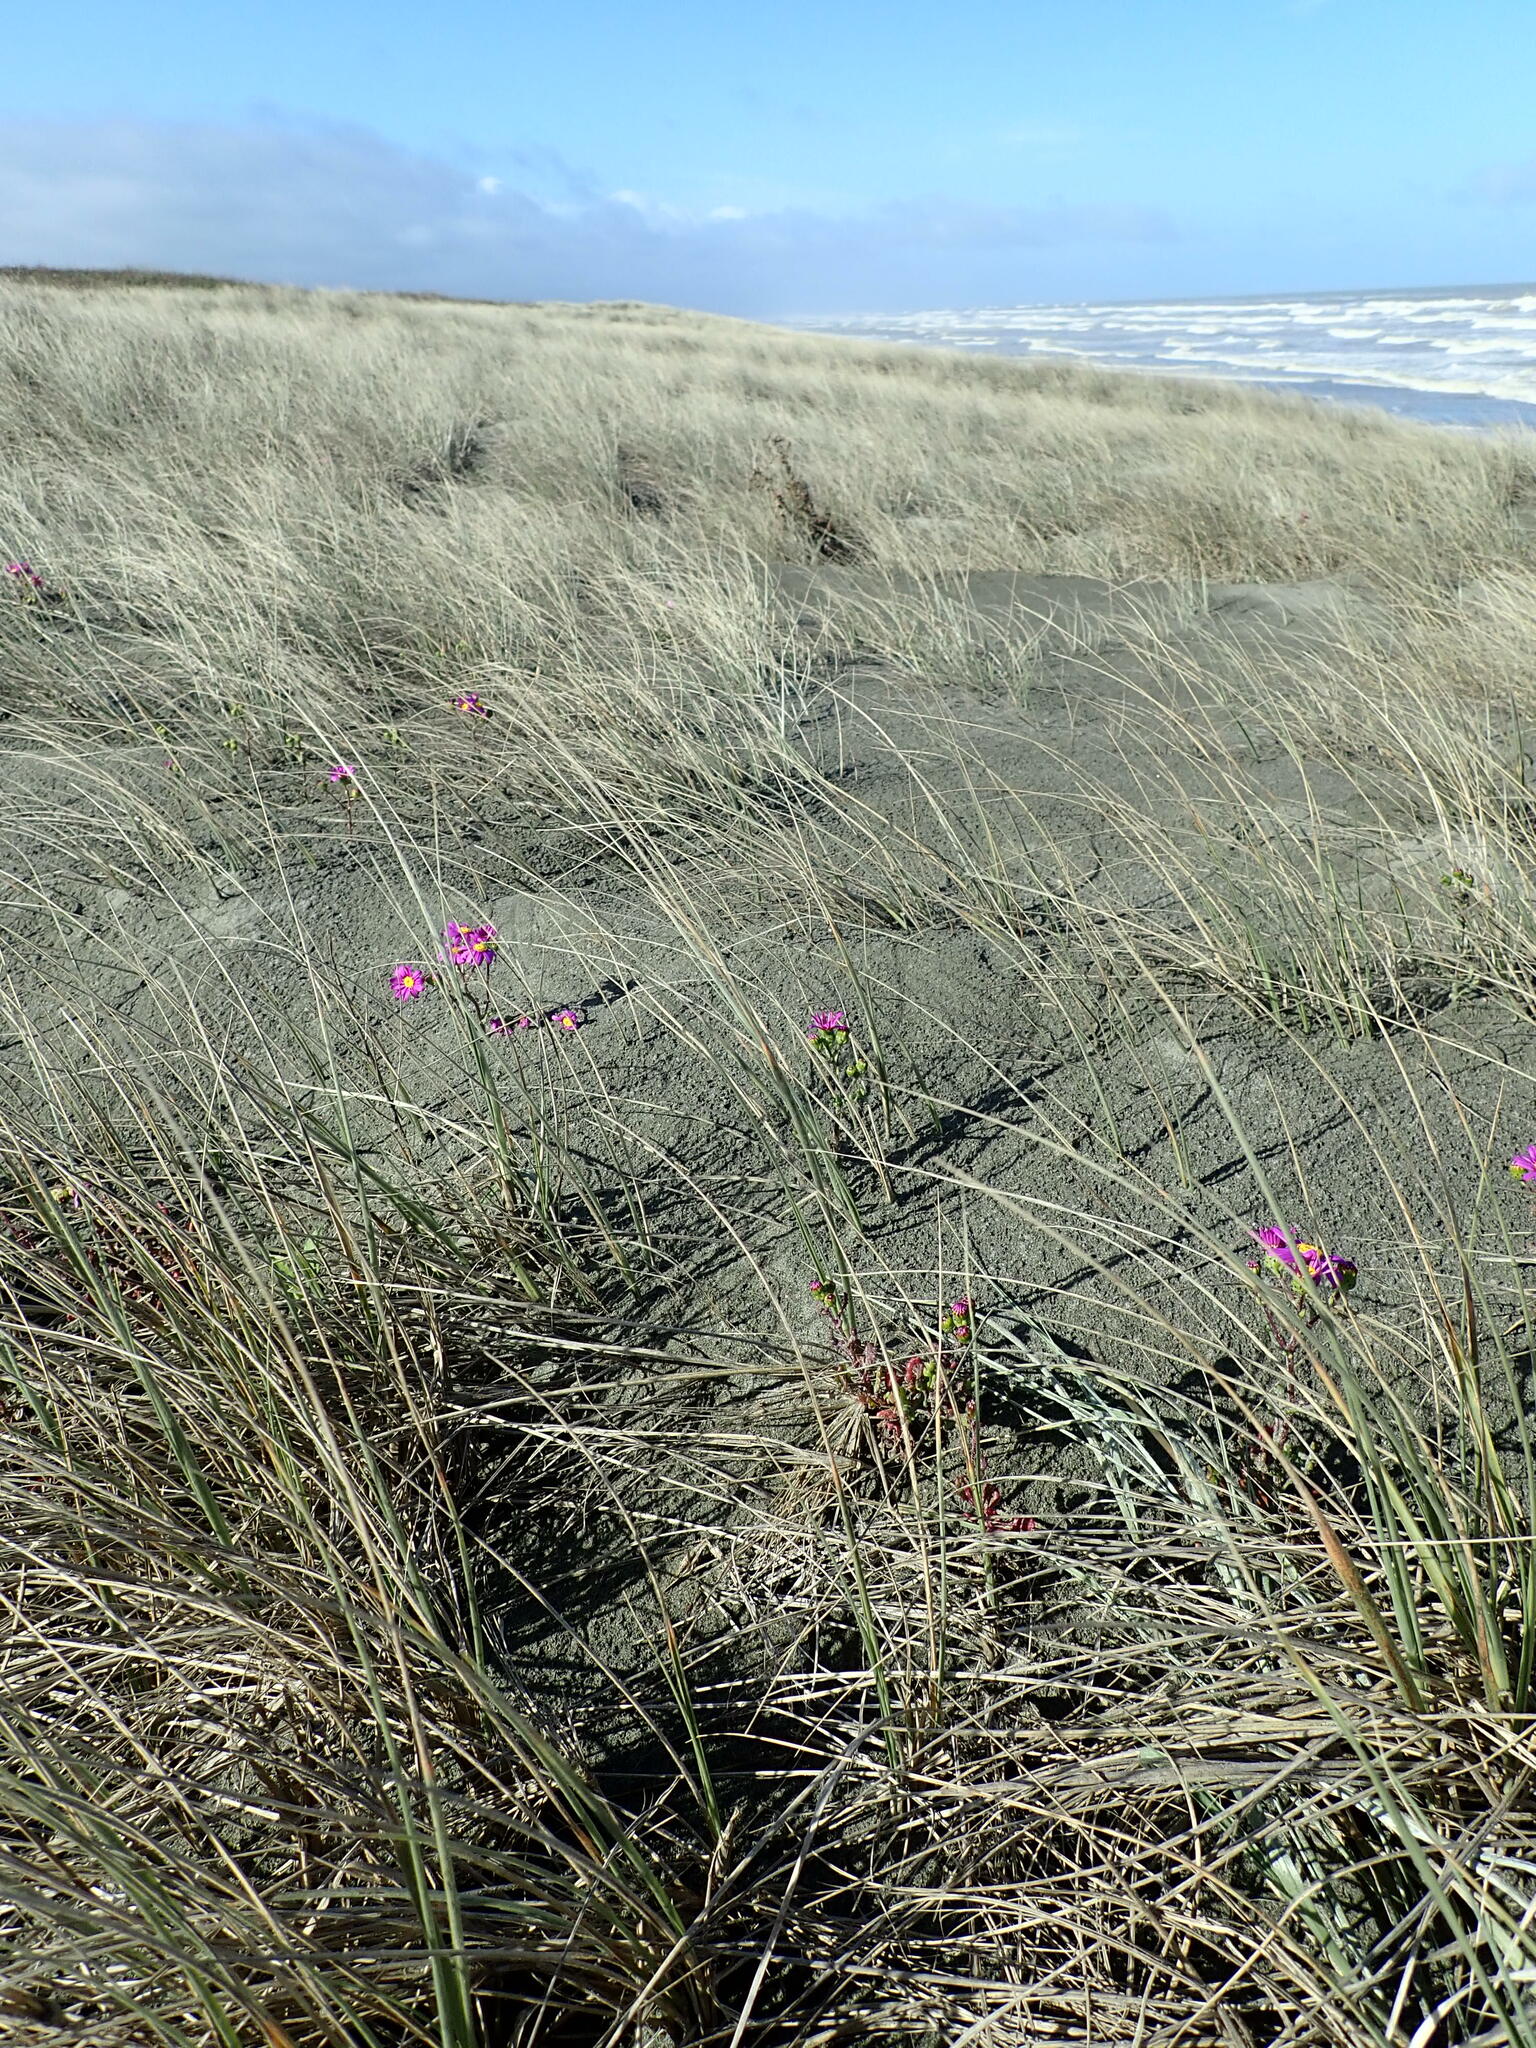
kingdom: Plantae
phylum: Tracheophyta
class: Magnoliopsida
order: Asterales
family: Asteraceae
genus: Senecio
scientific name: Senecio elegans
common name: Purple groundsel
